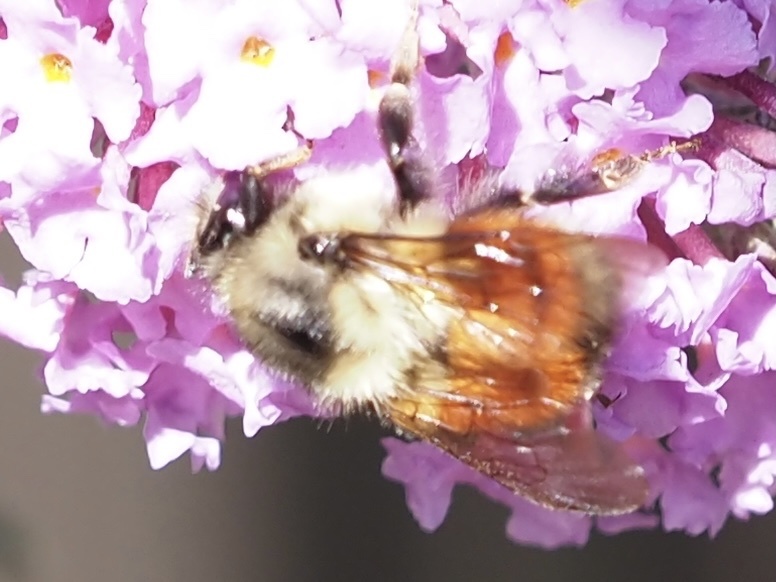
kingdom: Animalia
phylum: Arthropoda
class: Insecta
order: Hymenoptera
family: Apidae
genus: Bombus
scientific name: Bombus melanopygus
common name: Black tail bumble bee
